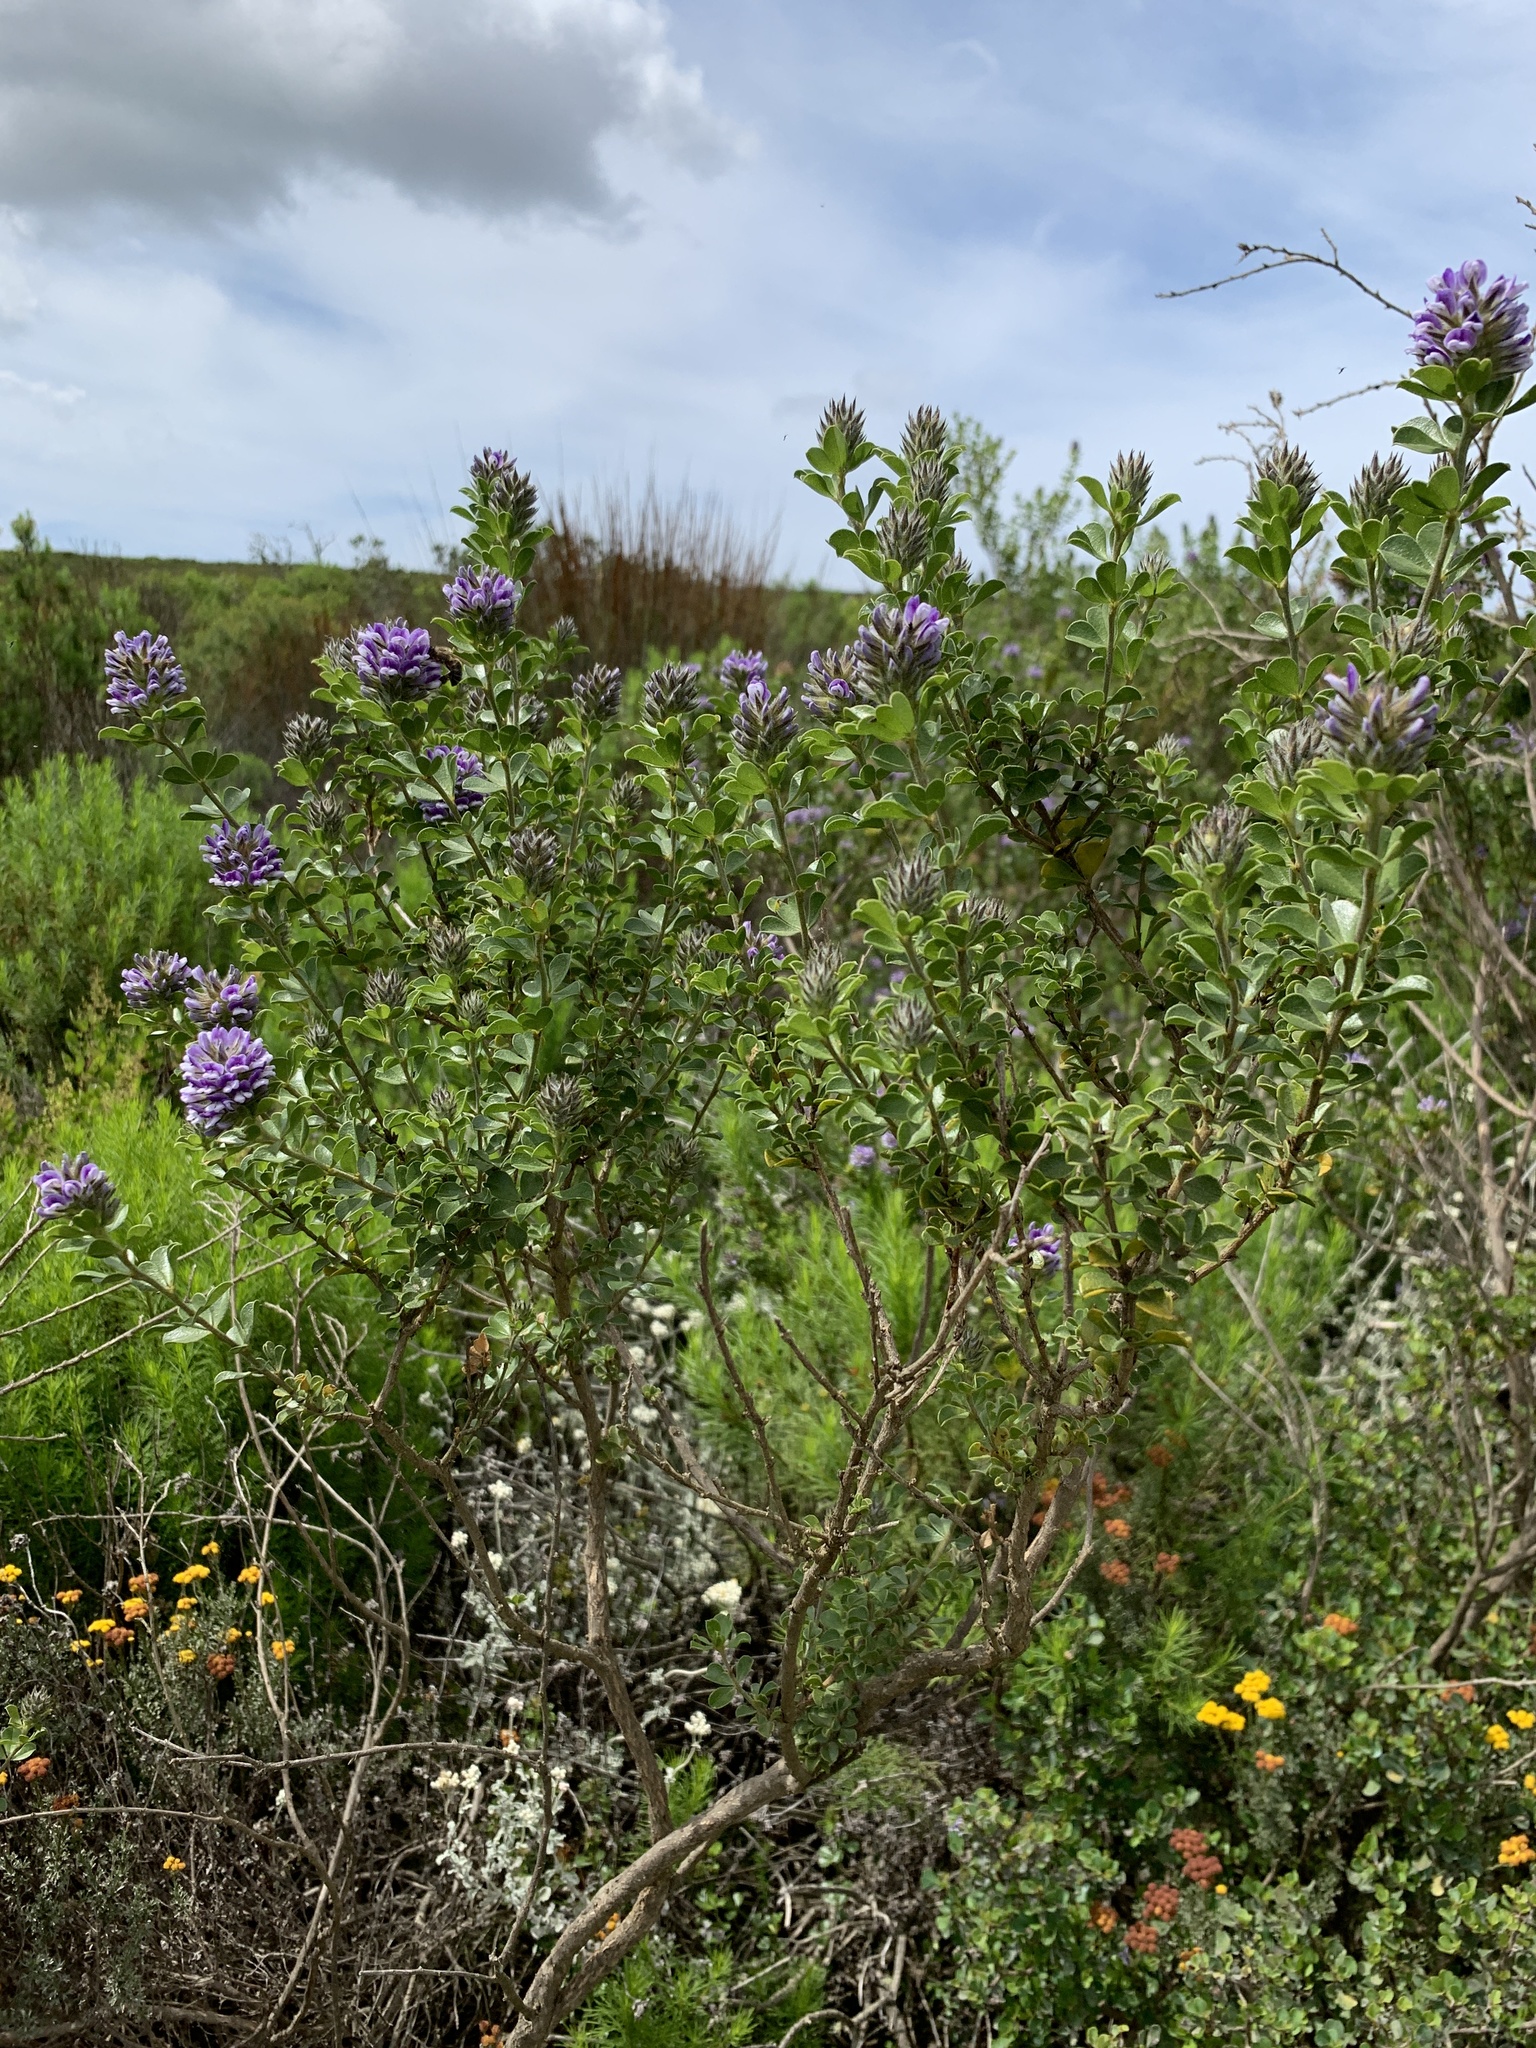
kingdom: Plantae
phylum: Tracheophyta
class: Magnoliopsida
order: Fabales
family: Fabaceae
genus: Psoralea
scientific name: Psoralea bracteolata
